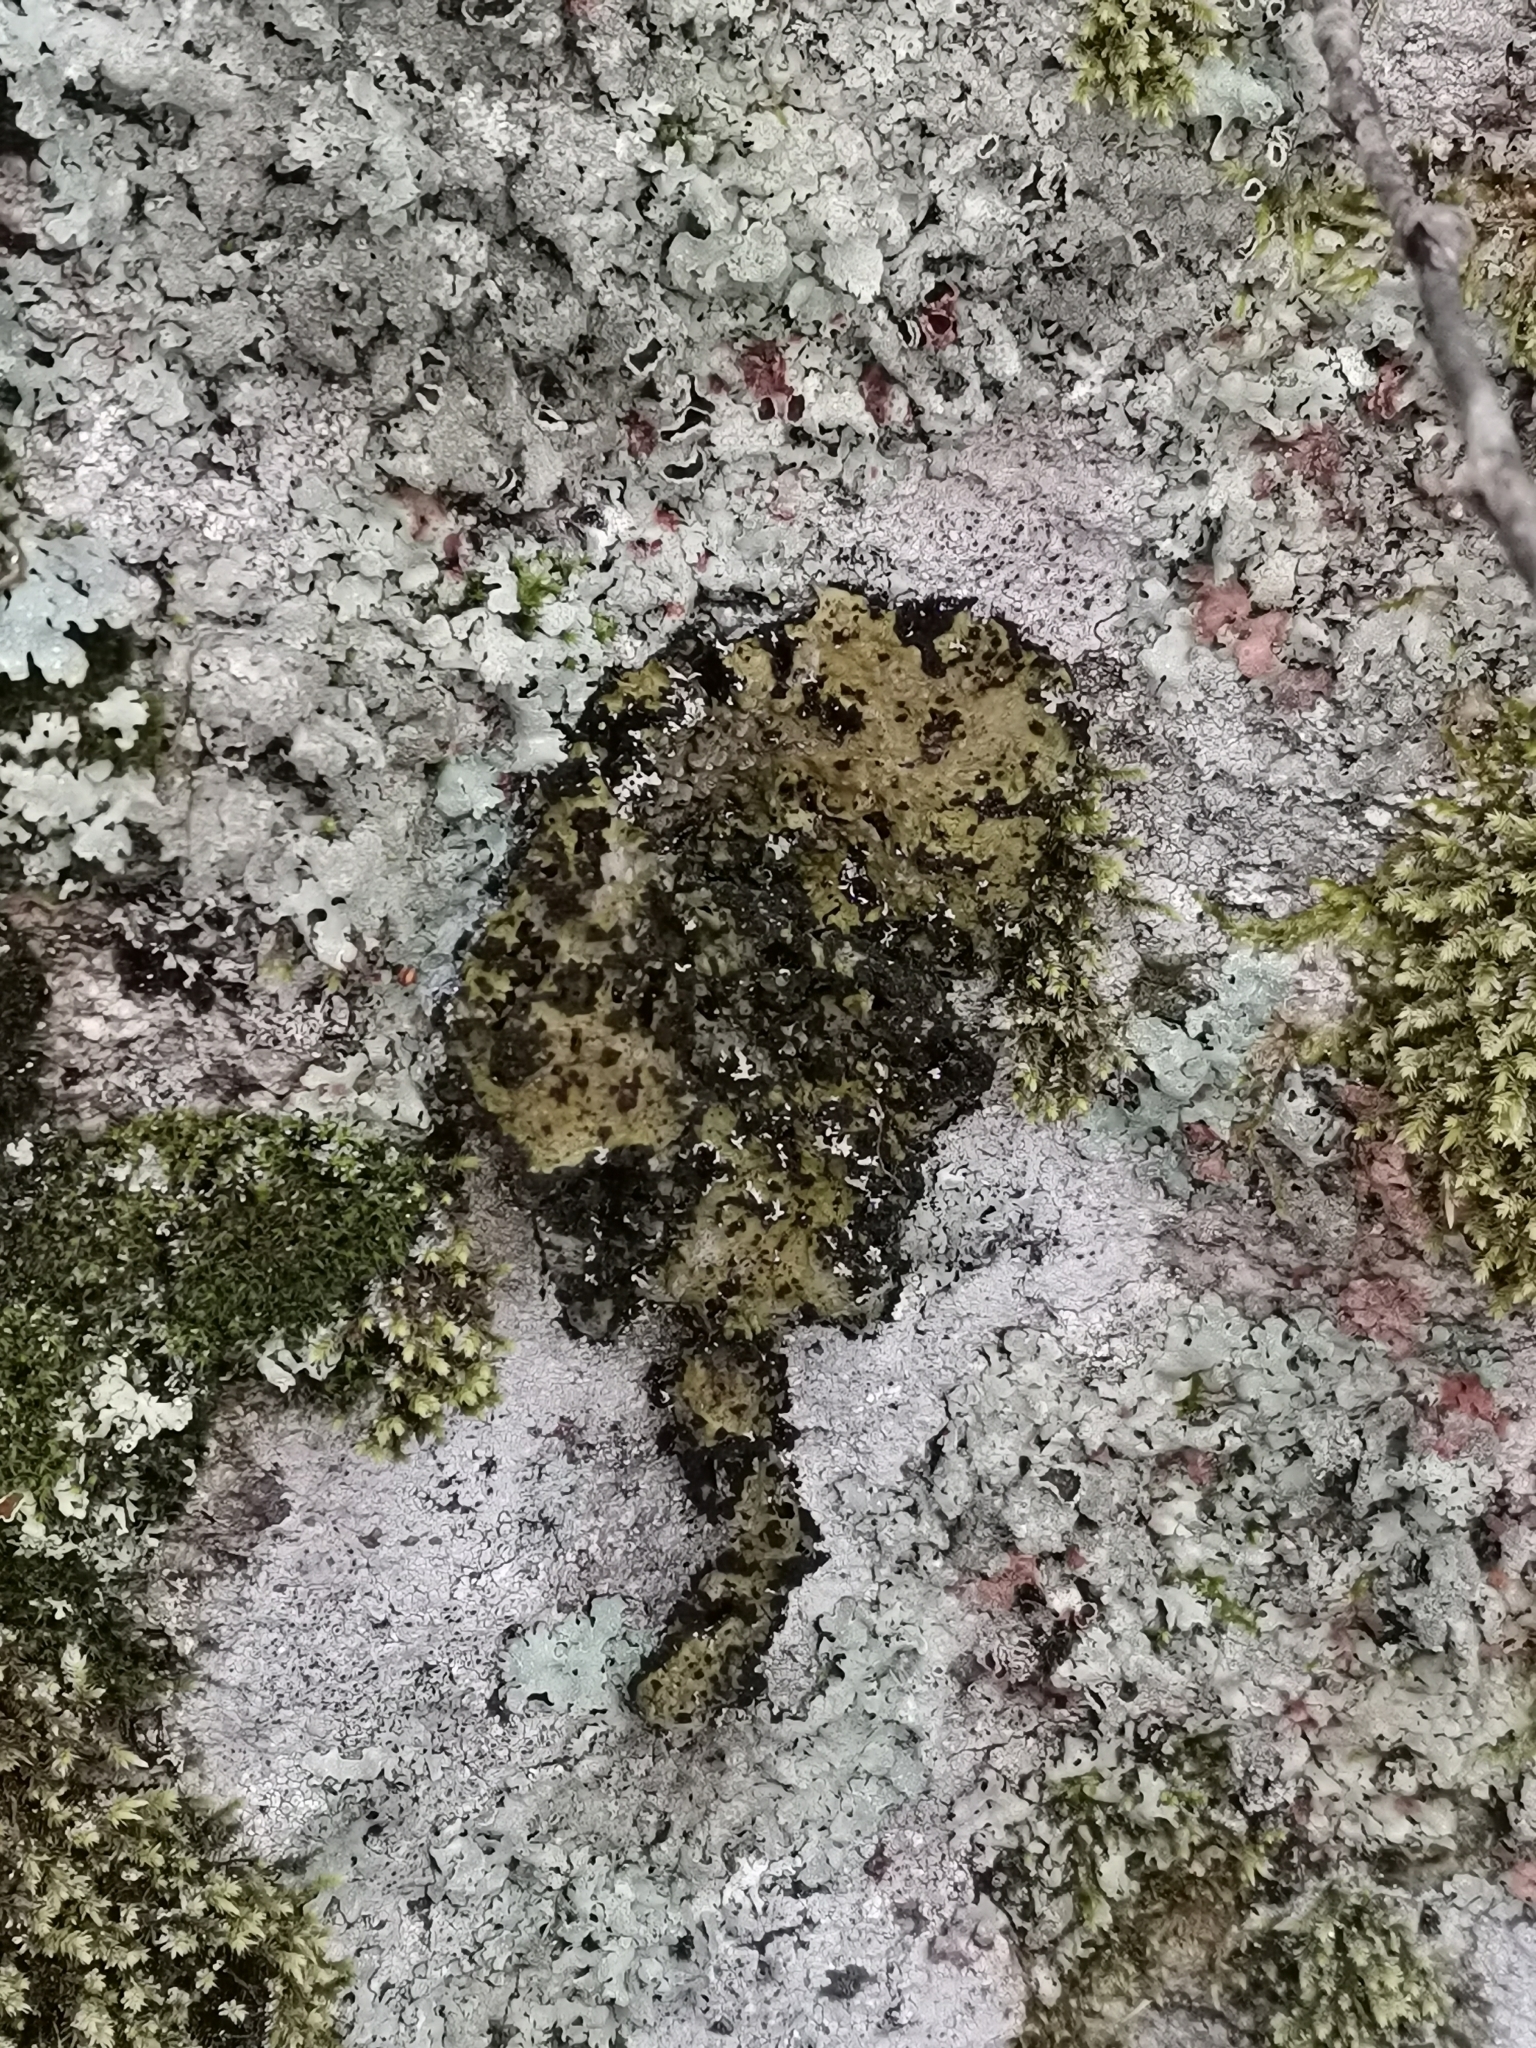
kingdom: Fungi
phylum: Ascomycota
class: Lecanoromycetes
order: Umbilicariales
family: Umbilicariaceae
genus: Lasallia
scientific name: Lasallia pustulata
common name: Blistered toadskin lichen
